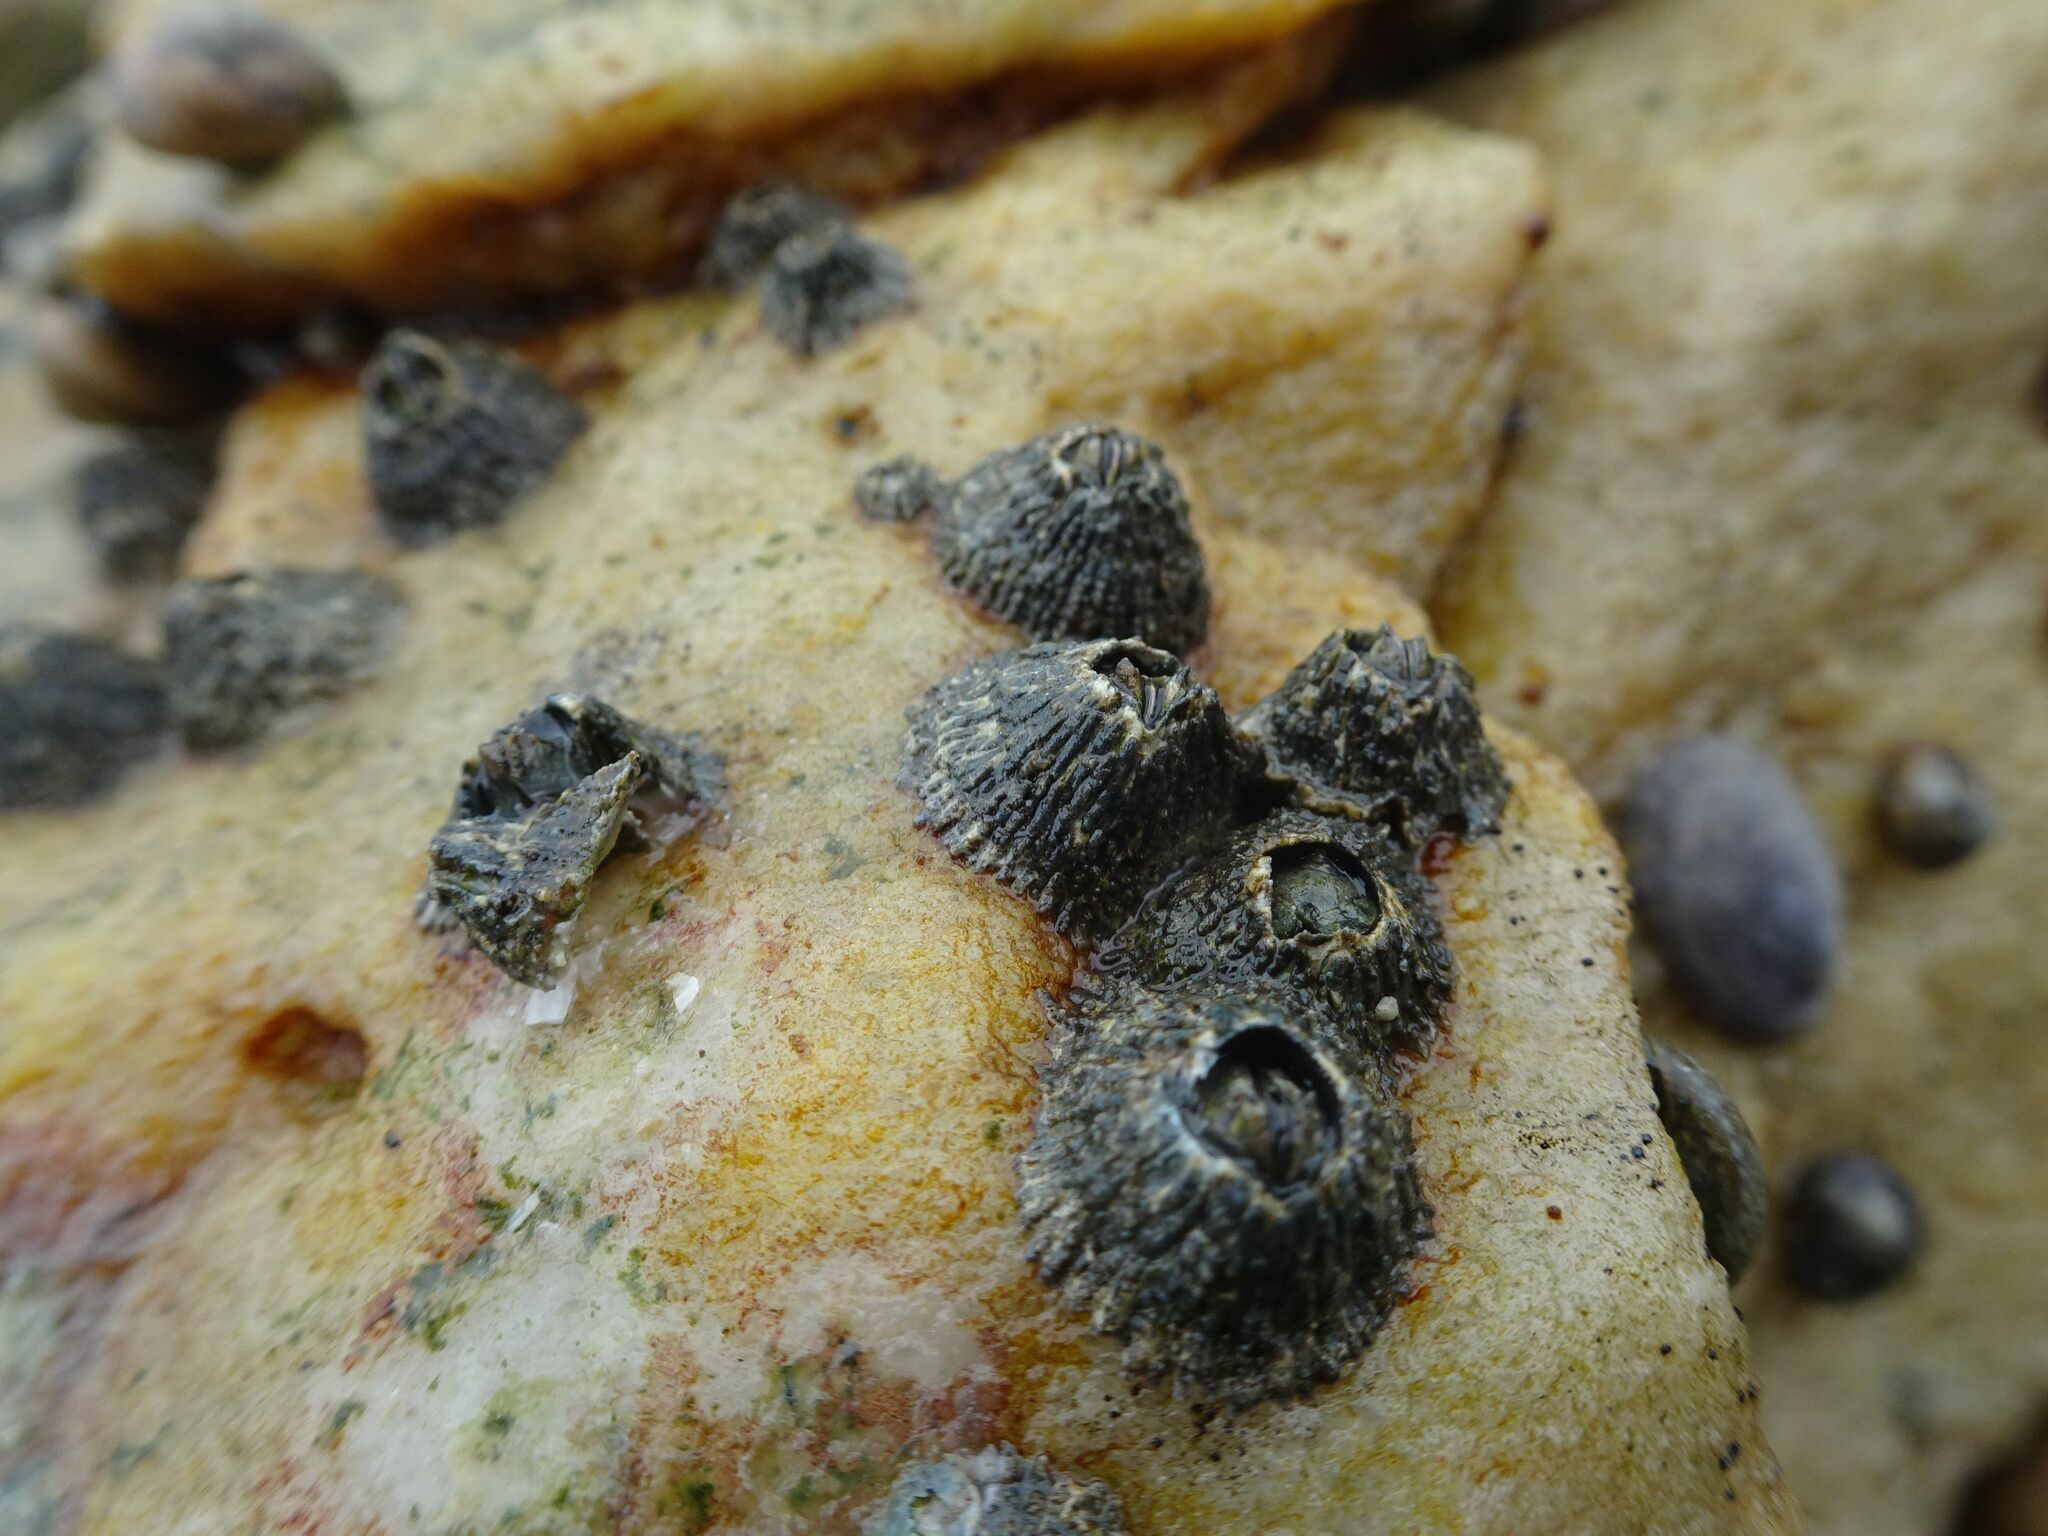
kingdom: Animalia
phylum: Arthropoda
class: Maxillopoda
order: Sessilia
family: Tetraclitidae
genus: Tetraclita
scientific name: Tetraclita serrata
